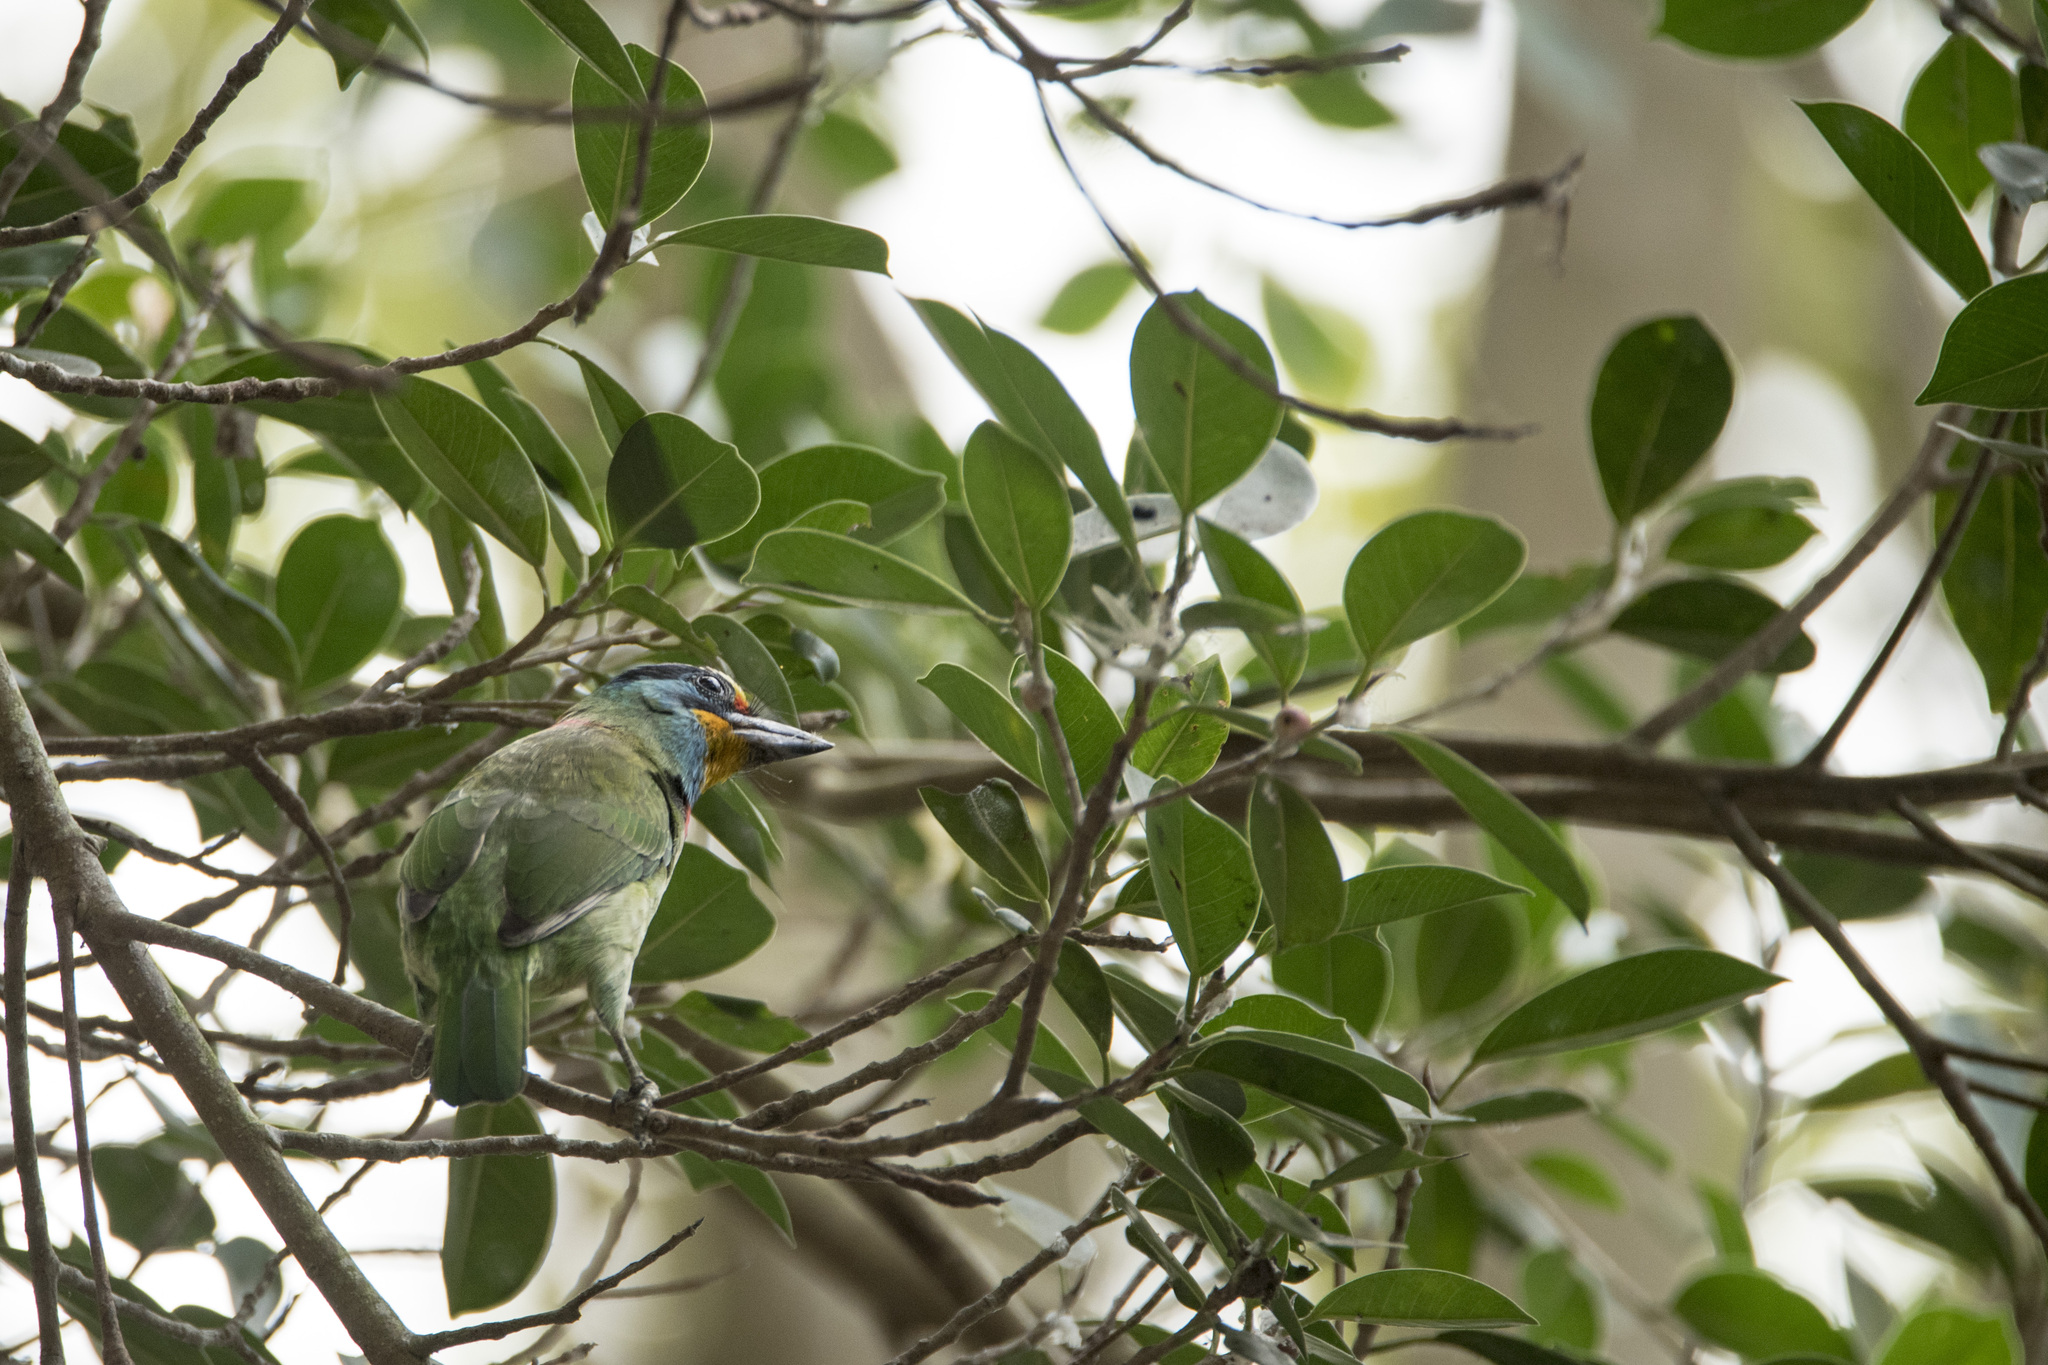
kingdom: Animalia
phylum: Chordata
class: Aves
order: Piciformes
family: Megalaimidae
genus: Psilopogon
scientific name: Psilopogon nuchalis
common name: Taiwan barbet
